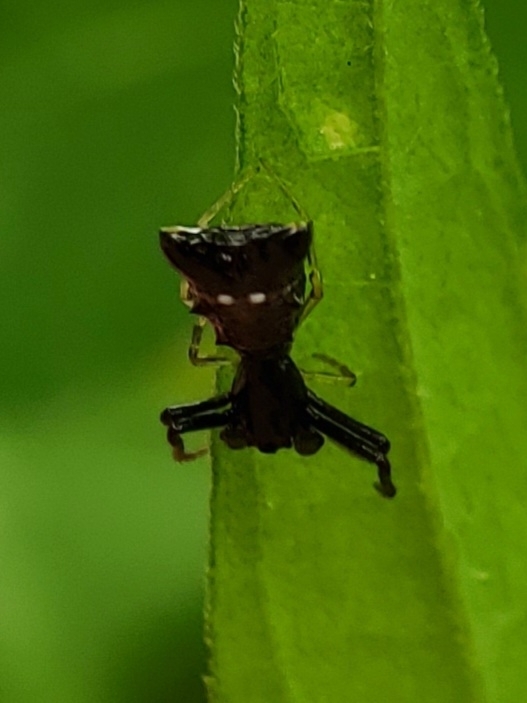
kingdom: Animalia
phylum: Arthropoda
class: Arachnida
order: Araneae
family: Araneidae
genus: Micrathena
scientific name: Micrathena sagittata
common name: Orb weavers
